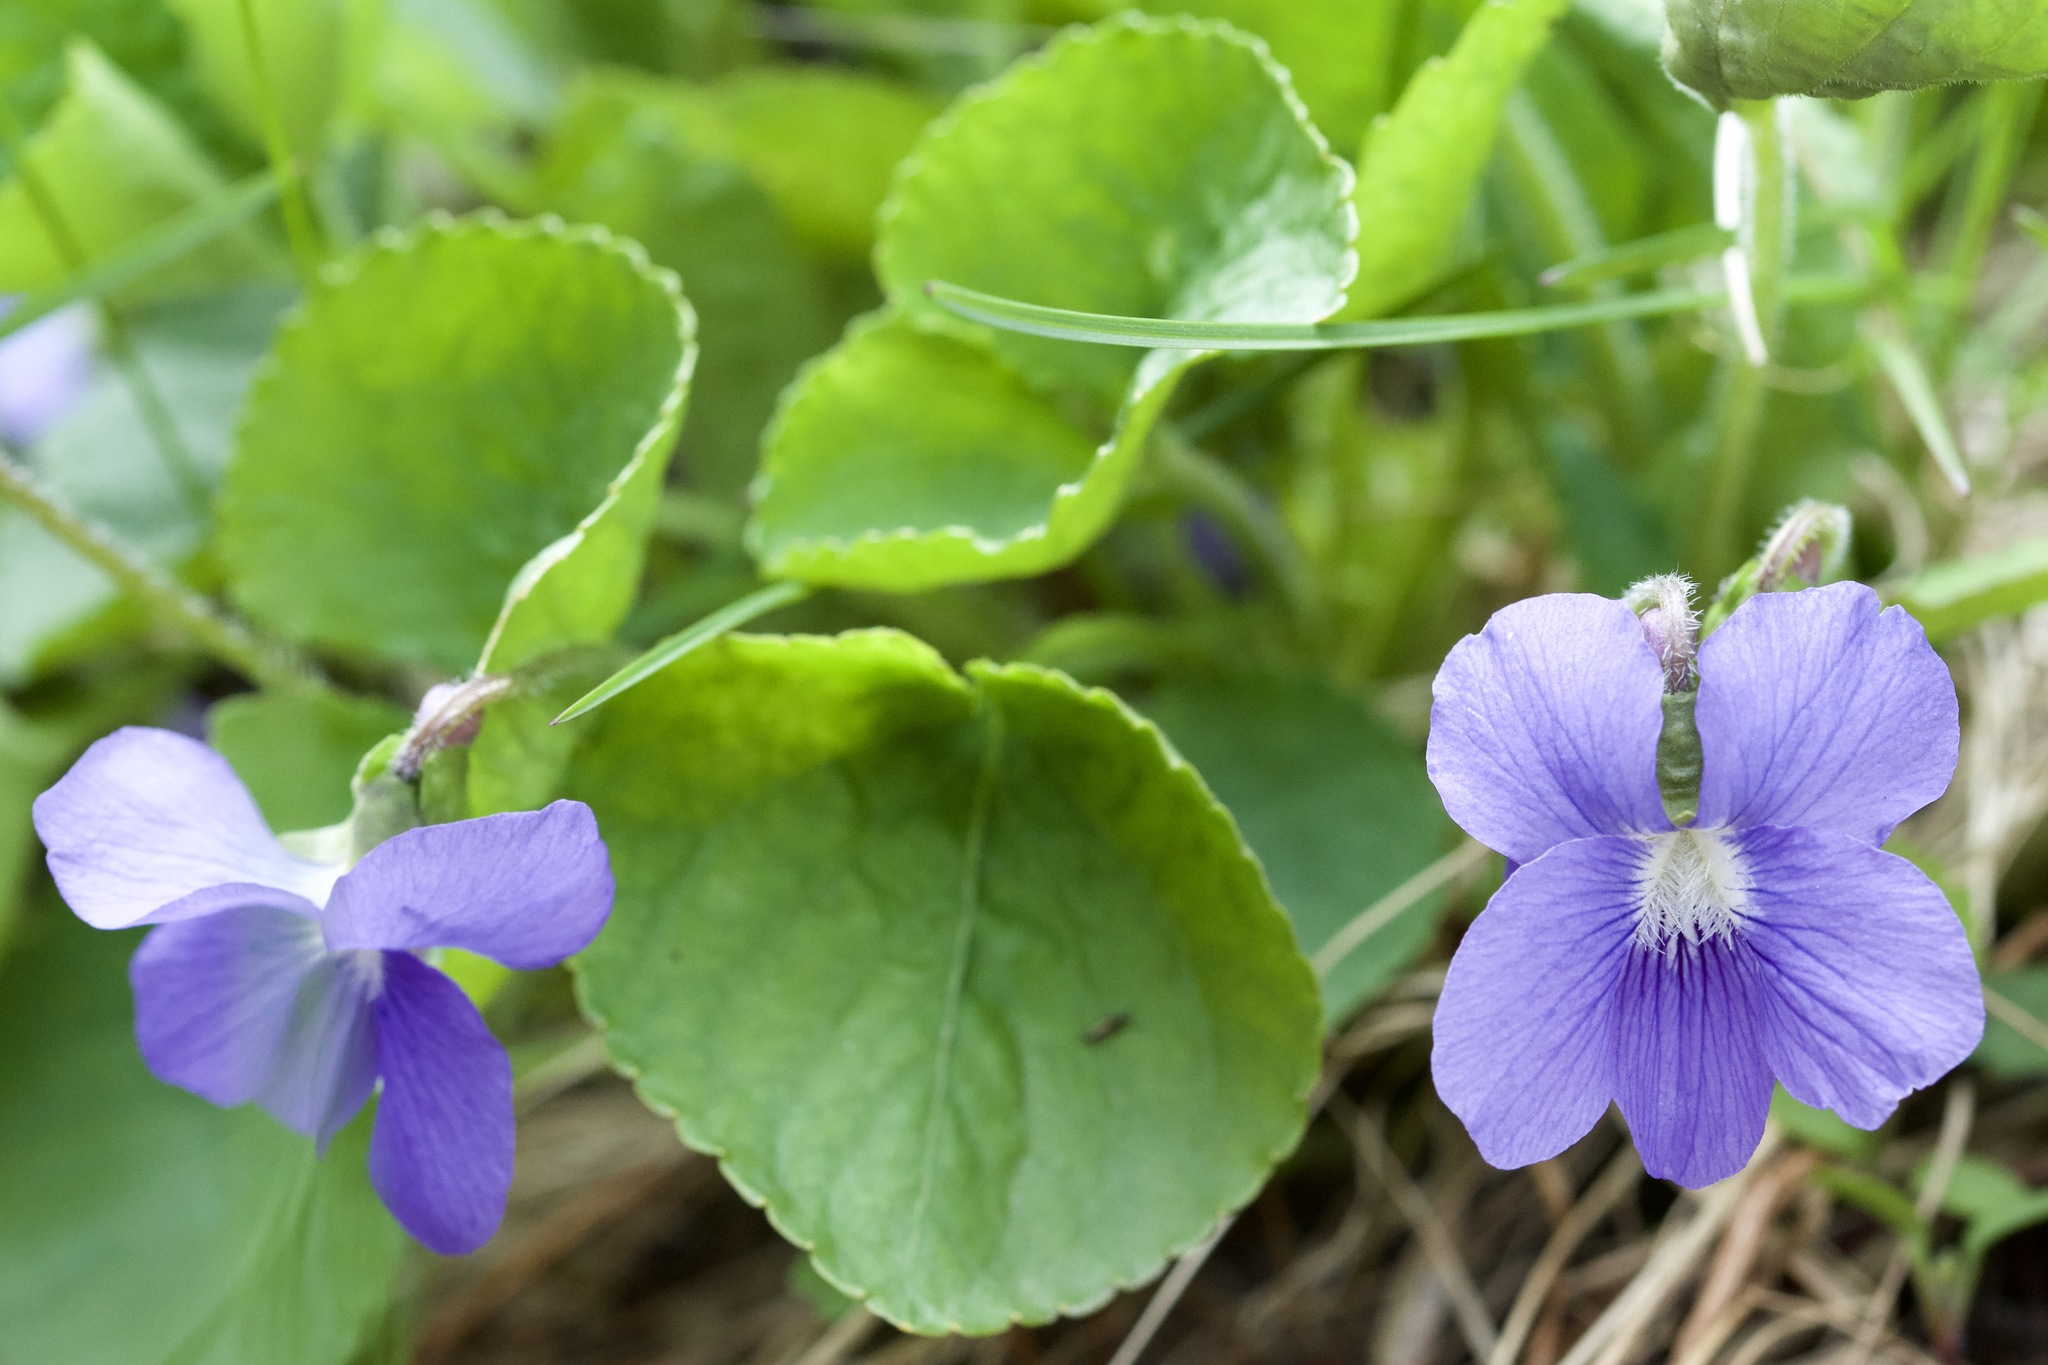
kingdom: Plantae
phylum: Tracheophyta
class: Magnoliopsida
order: Malpighiales
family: Violaceae
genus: Viola
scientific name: Viola sororia
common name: Dooryard violet
